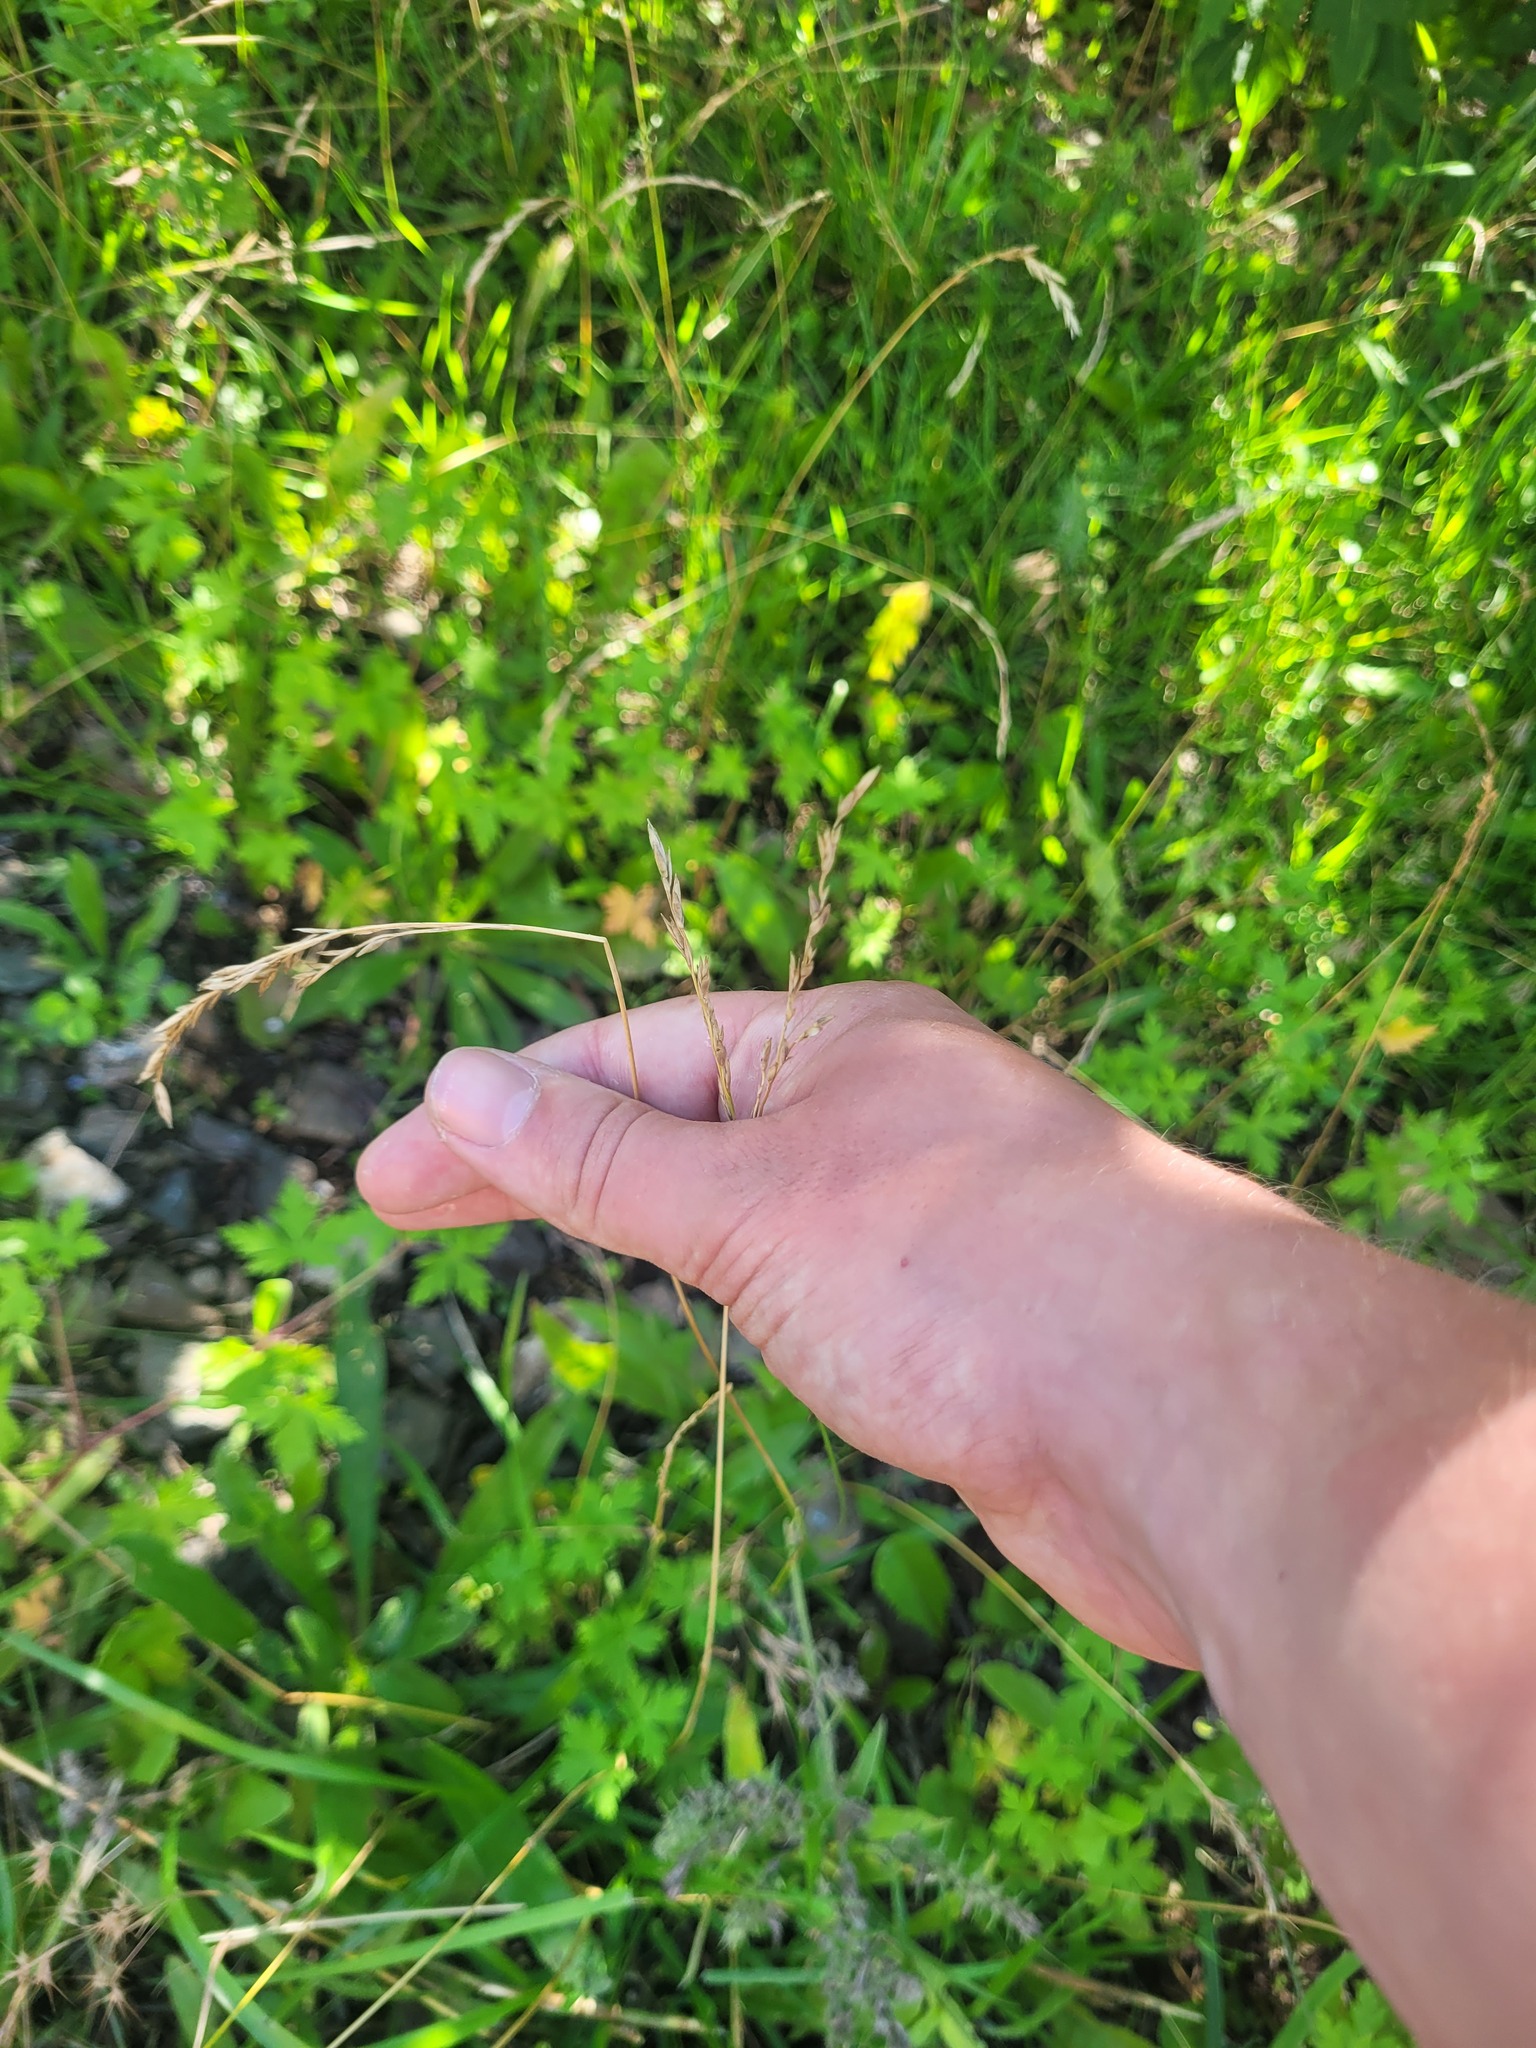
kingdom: Plantae
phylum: Tracheophyta
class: Liliopsida
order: Poales
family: Poaceae
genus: Lolium
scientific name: Lolium pratense
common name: Dover grass
